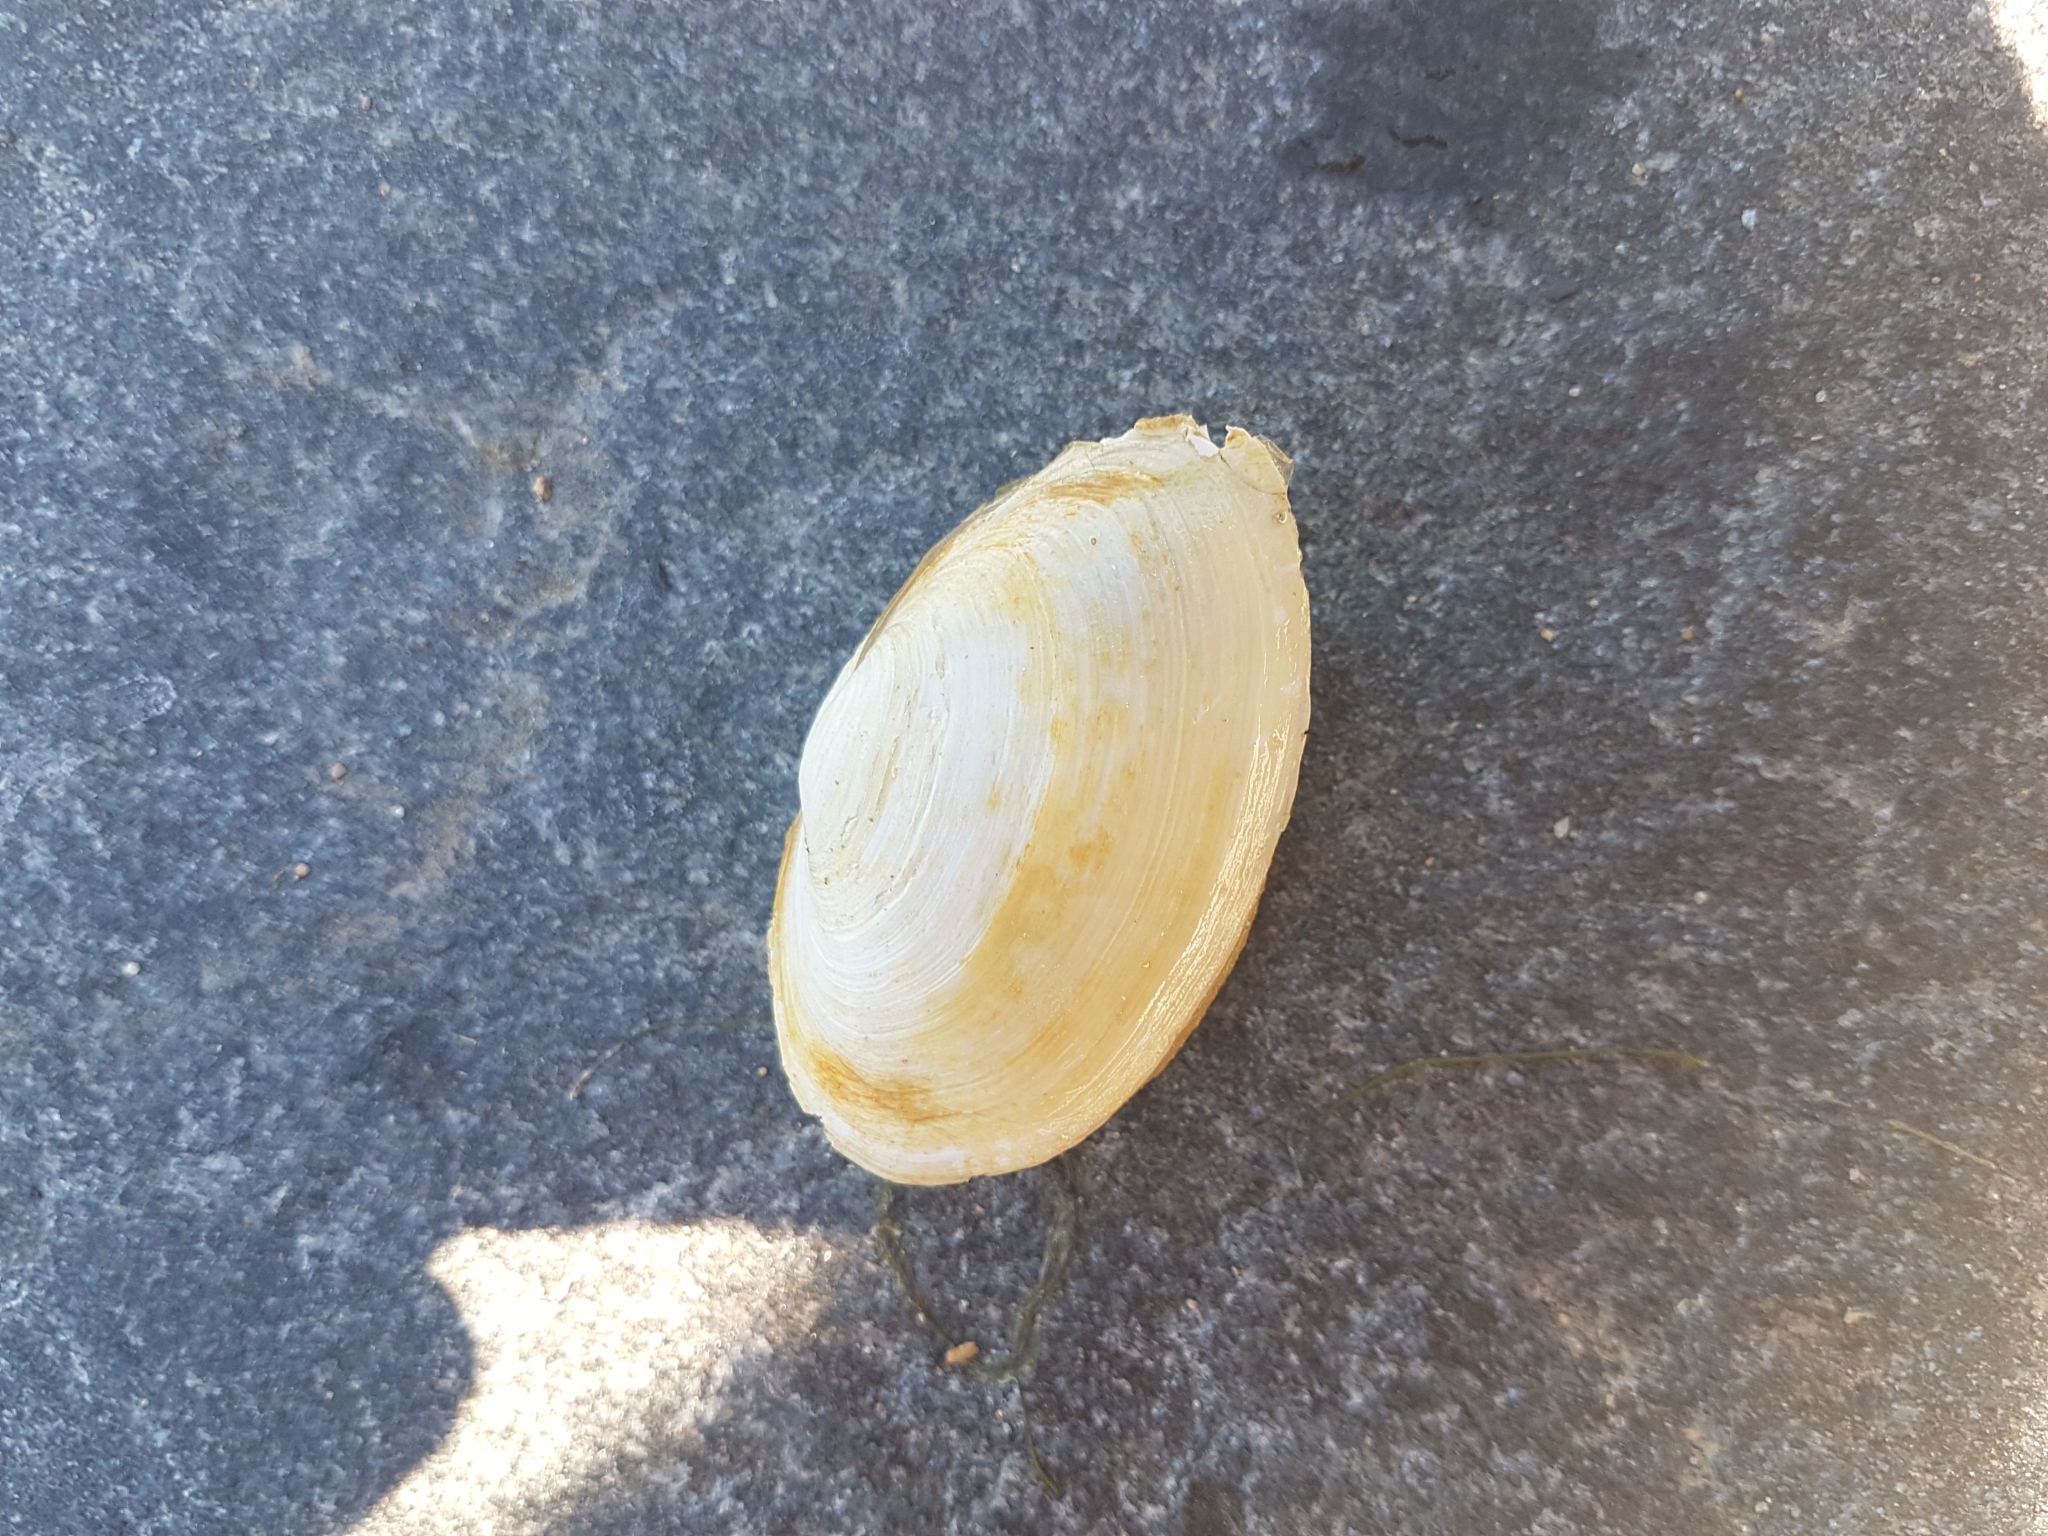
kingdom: Animalia
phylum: Mollusca
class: Bivalvia
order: Myida
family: Myidae
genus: Mya
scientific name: Mya arenaria
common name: Soft-shelled clam
